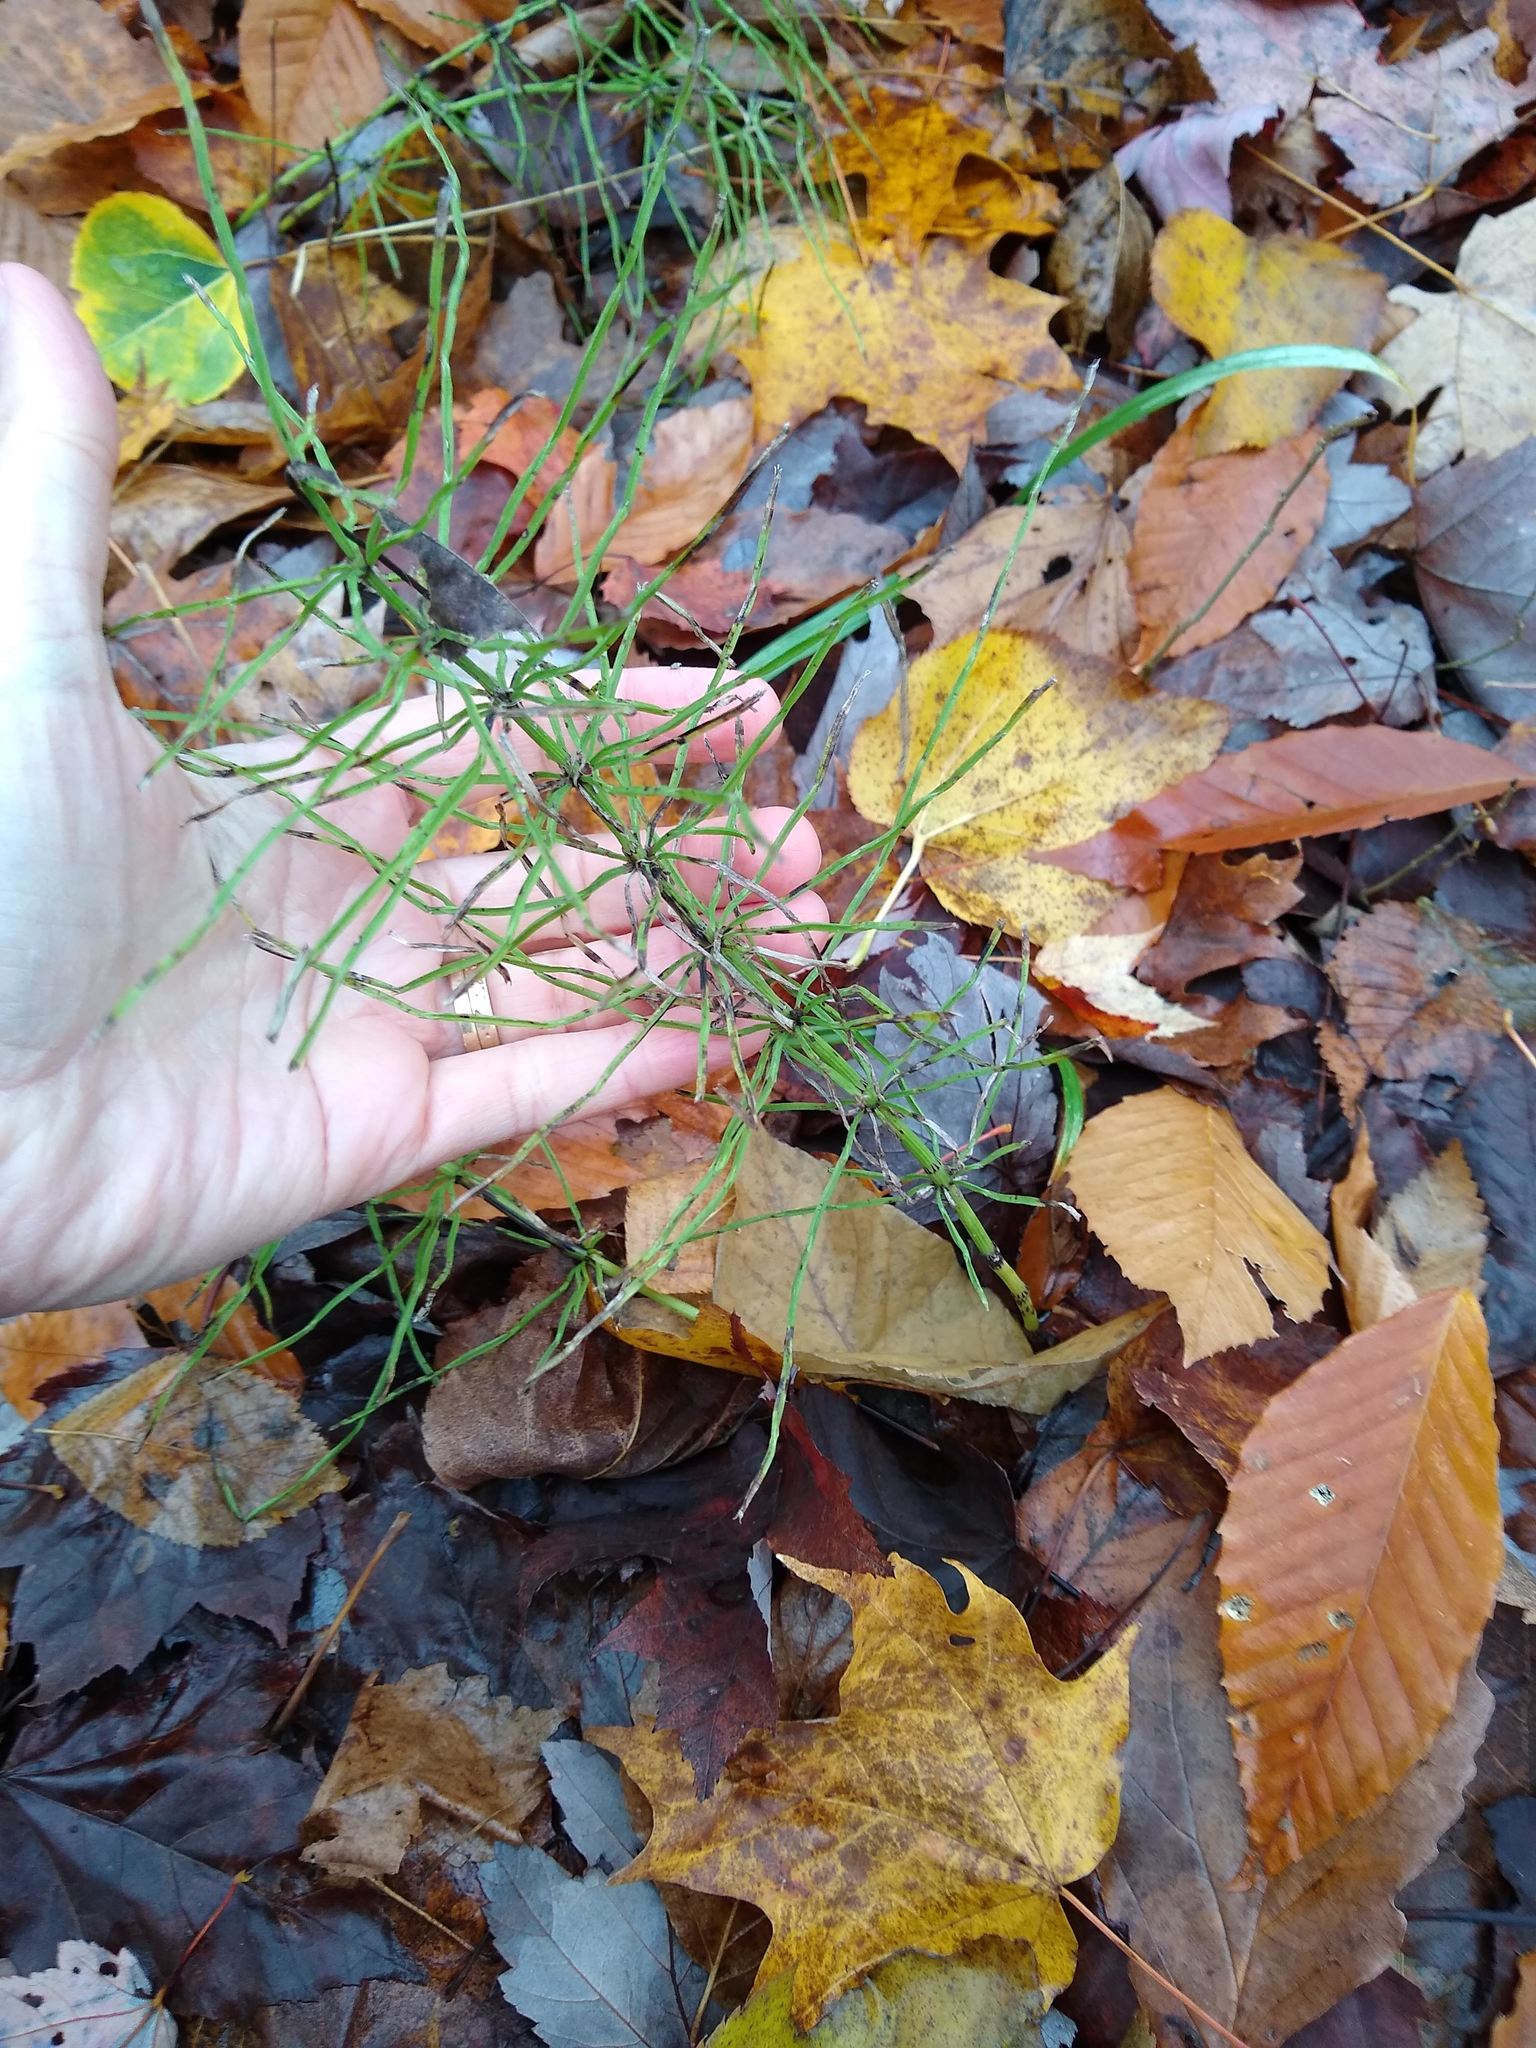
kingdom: Plantae
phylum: Tracheophyta
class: Polypodiopsida
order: Equisetales
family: Equisetaceae
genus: Equisetum
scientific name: Equisetum arvense
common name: Field horsetail
